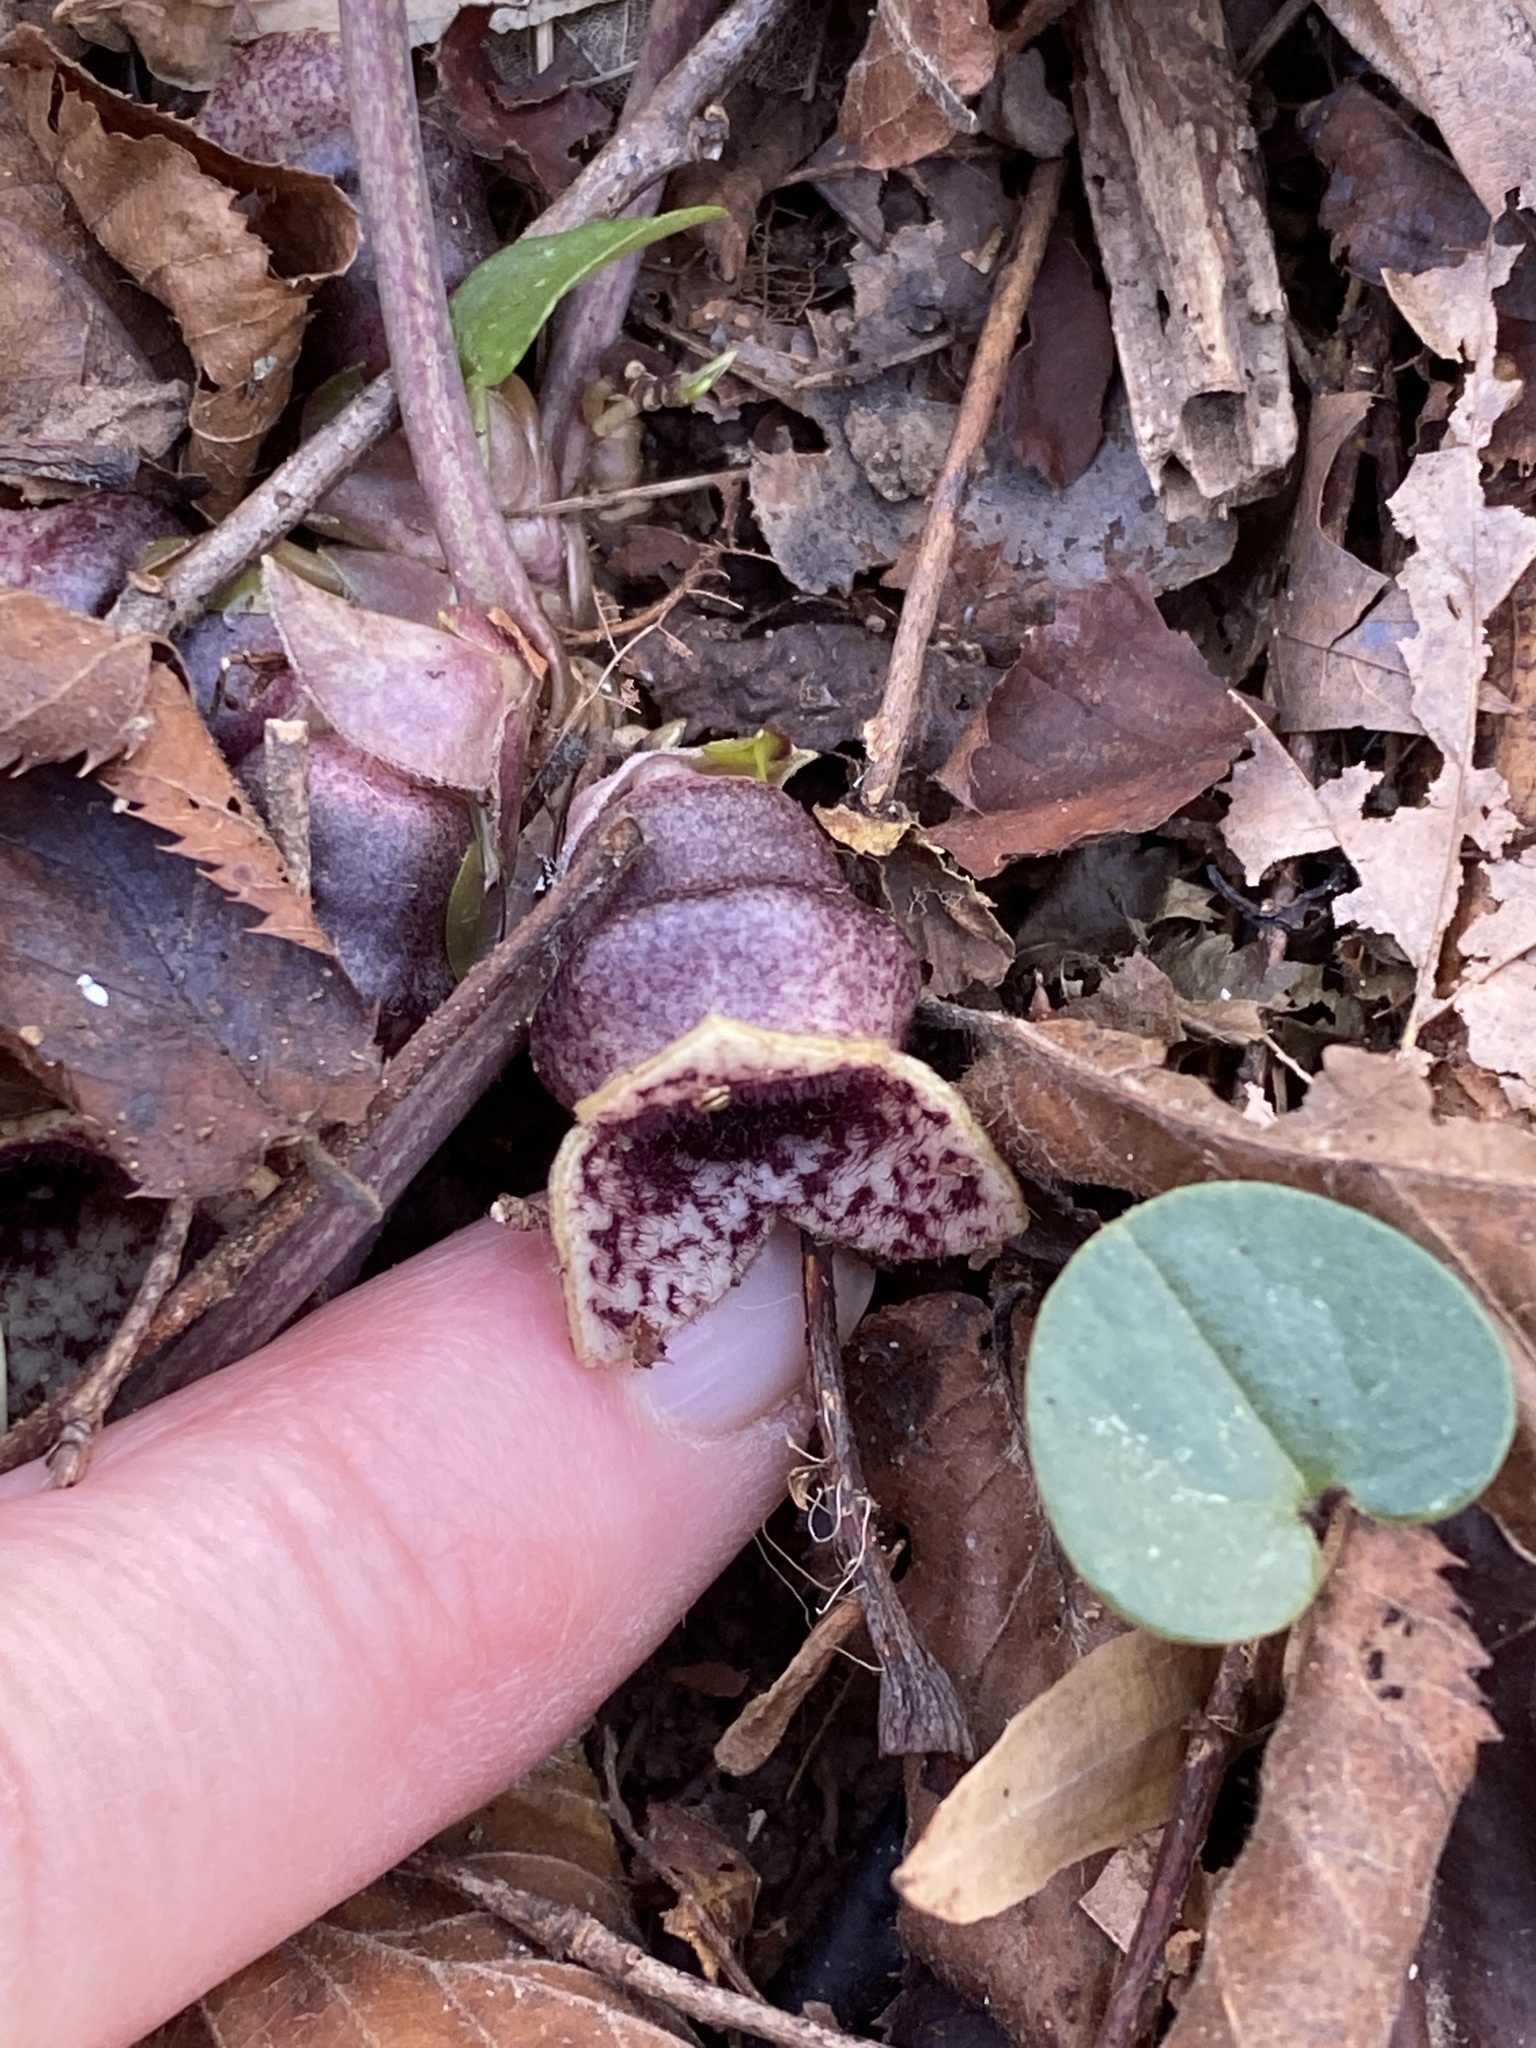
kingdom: Plantae
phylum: Tracheophyta
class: Magnoliopsida
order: Piperales
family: Aristolochiaceae
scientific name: Aristolochiaceae
